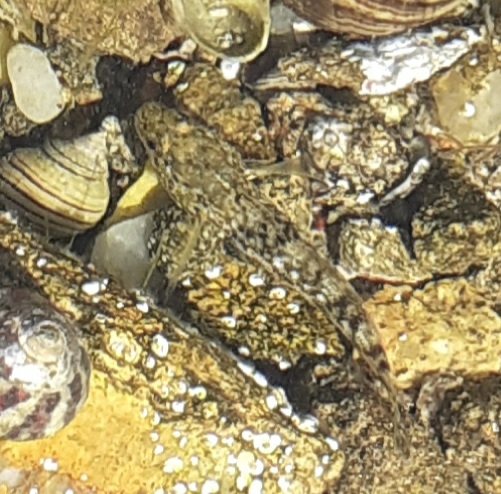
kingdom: Animalia
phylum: Chordata
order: Perciformes
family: Gobiidae
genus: Gobius
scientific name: Gobius cobitis
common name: Giant goby
